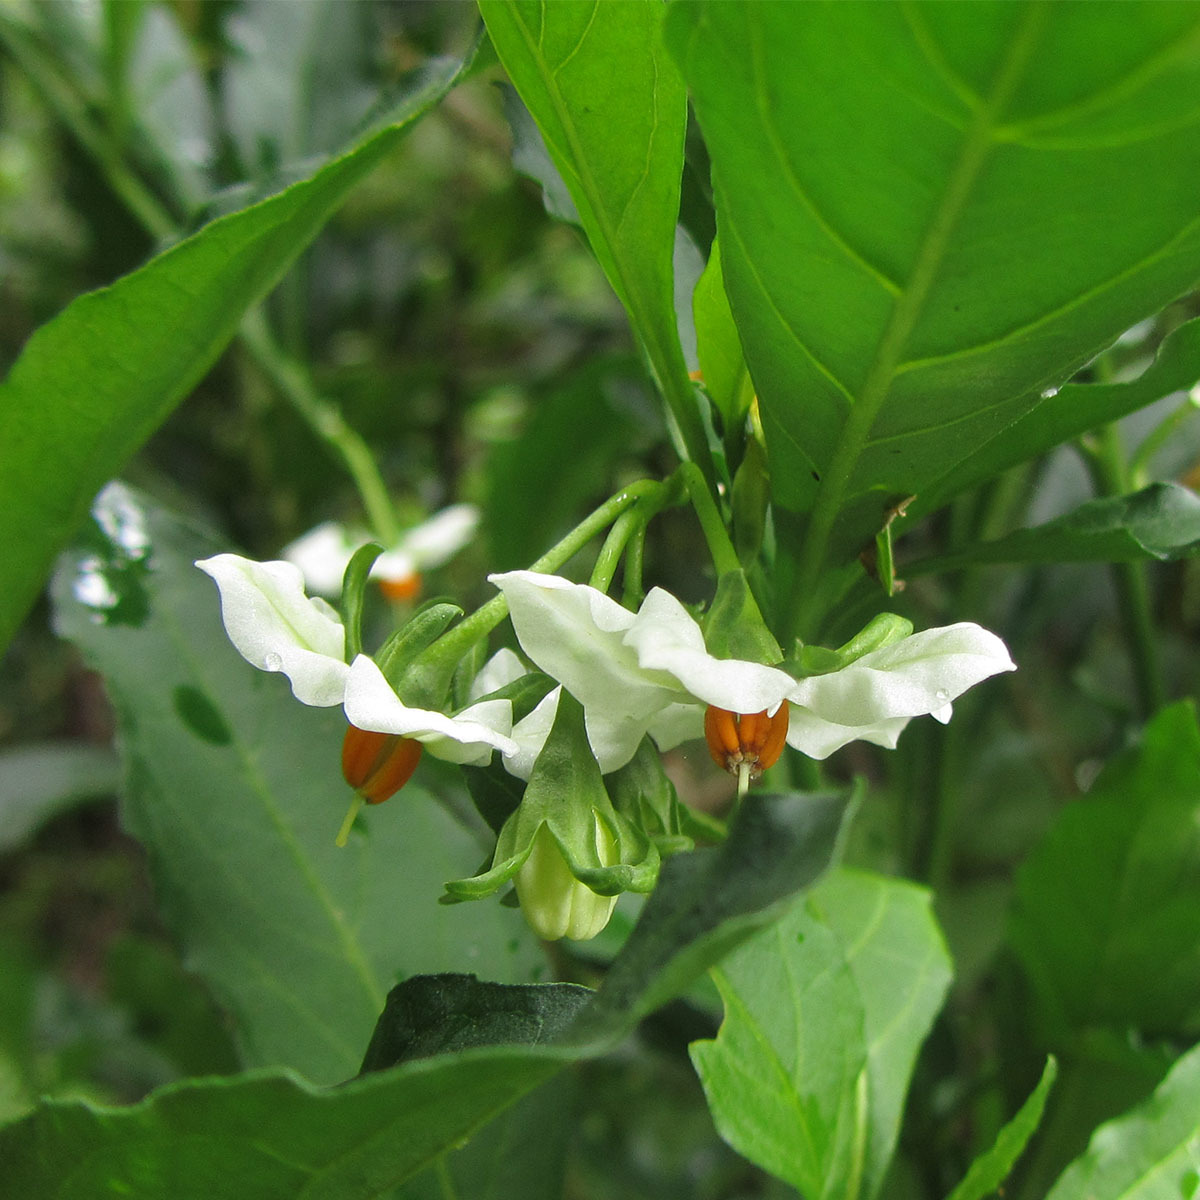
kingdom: Plantae
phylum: Tracheophyta
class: Magnoliopsida
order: Solanales
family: Solanaceae
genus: Solanum
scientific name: Solanum pseudocapsicum
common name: Jerusalem cherry
